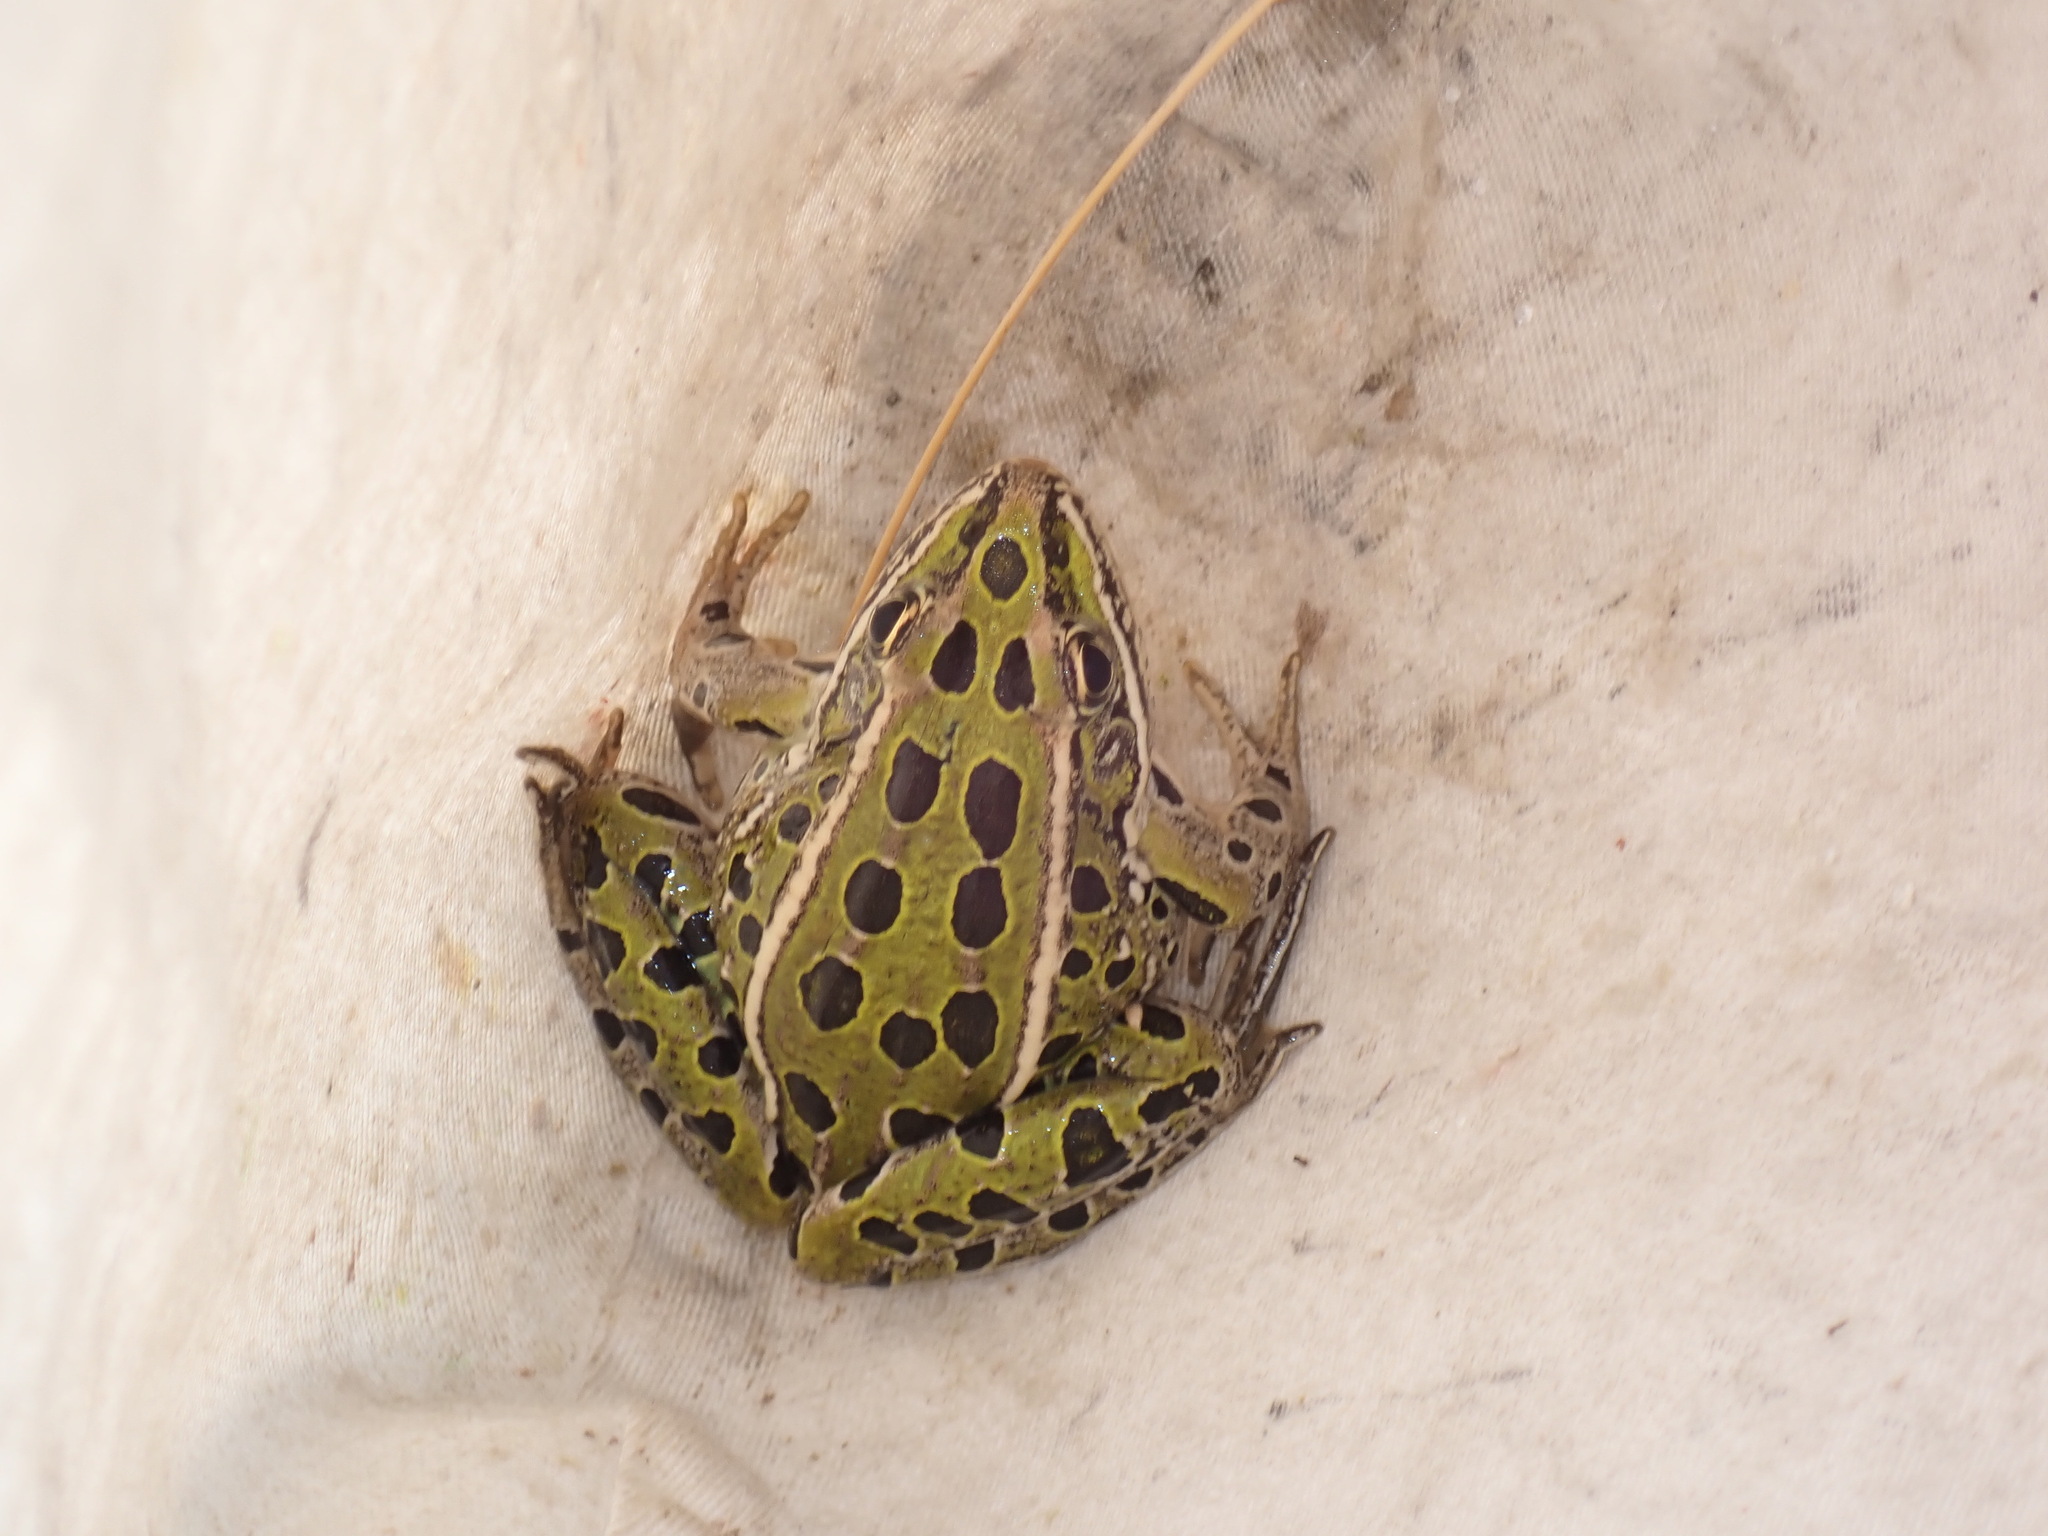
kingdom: Animalia
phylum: Chordata
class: Amphibia
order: Anura
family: Ranidae
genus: Lithobates
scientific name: Lithobates pipiens
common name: Northern leopard frog
